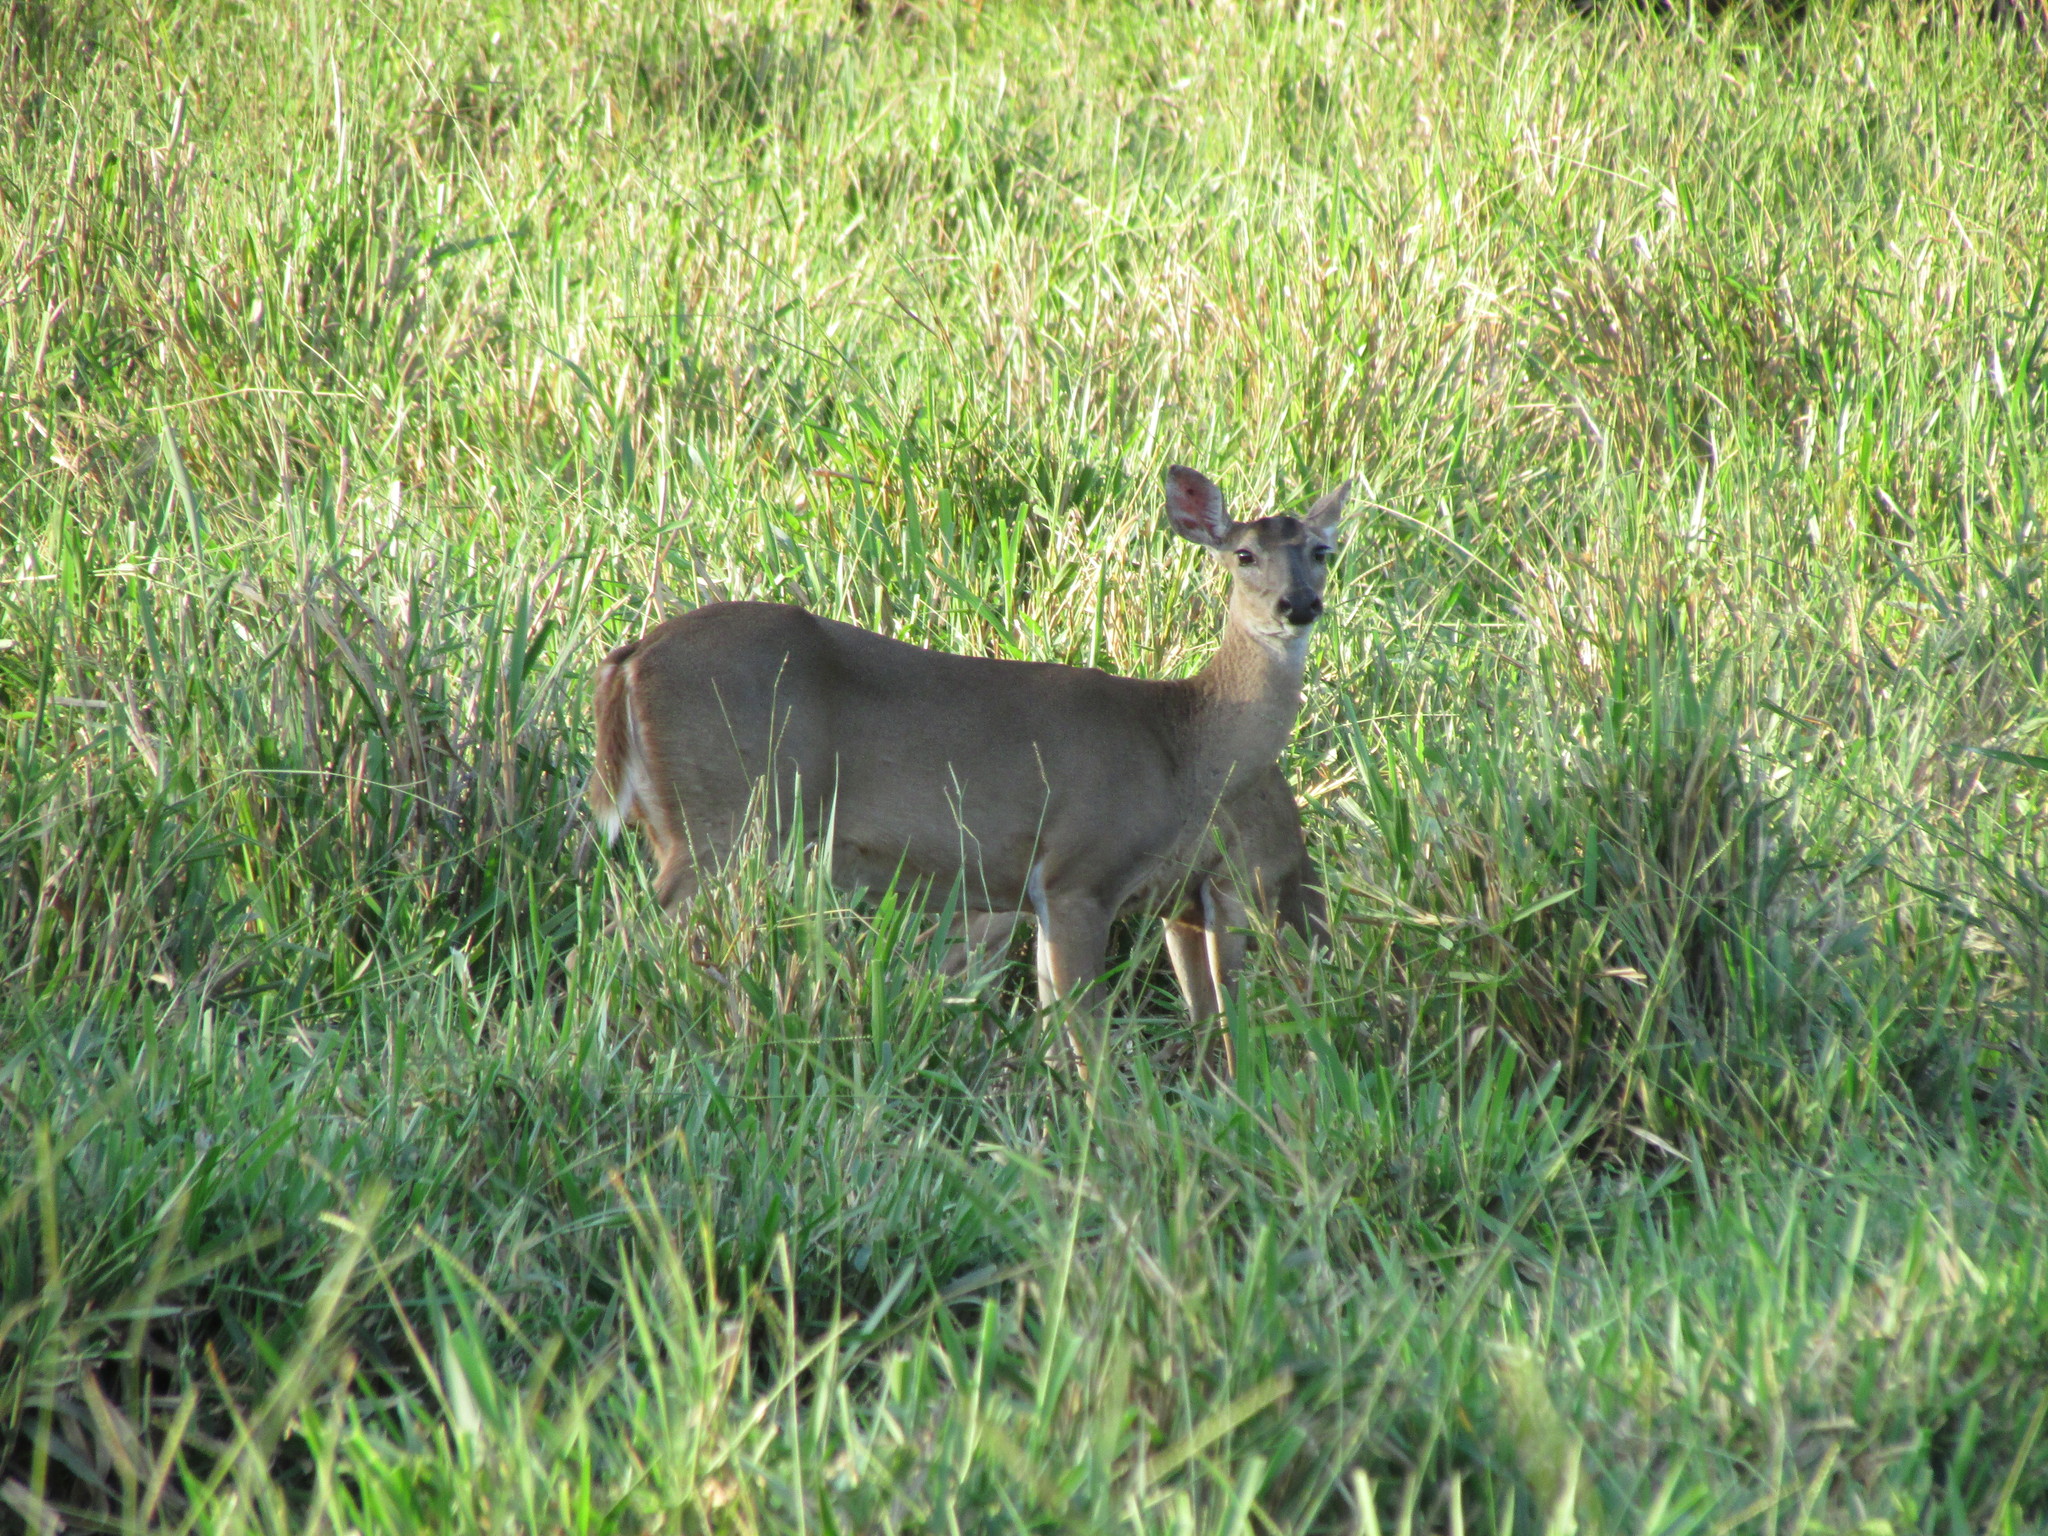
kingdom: Animalia
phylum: Chordata
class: Mammalia
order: Artiodactyla
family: Cervidae
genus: Odocoileus
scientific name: Odocoileus virginianus
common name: White-tailed deer
